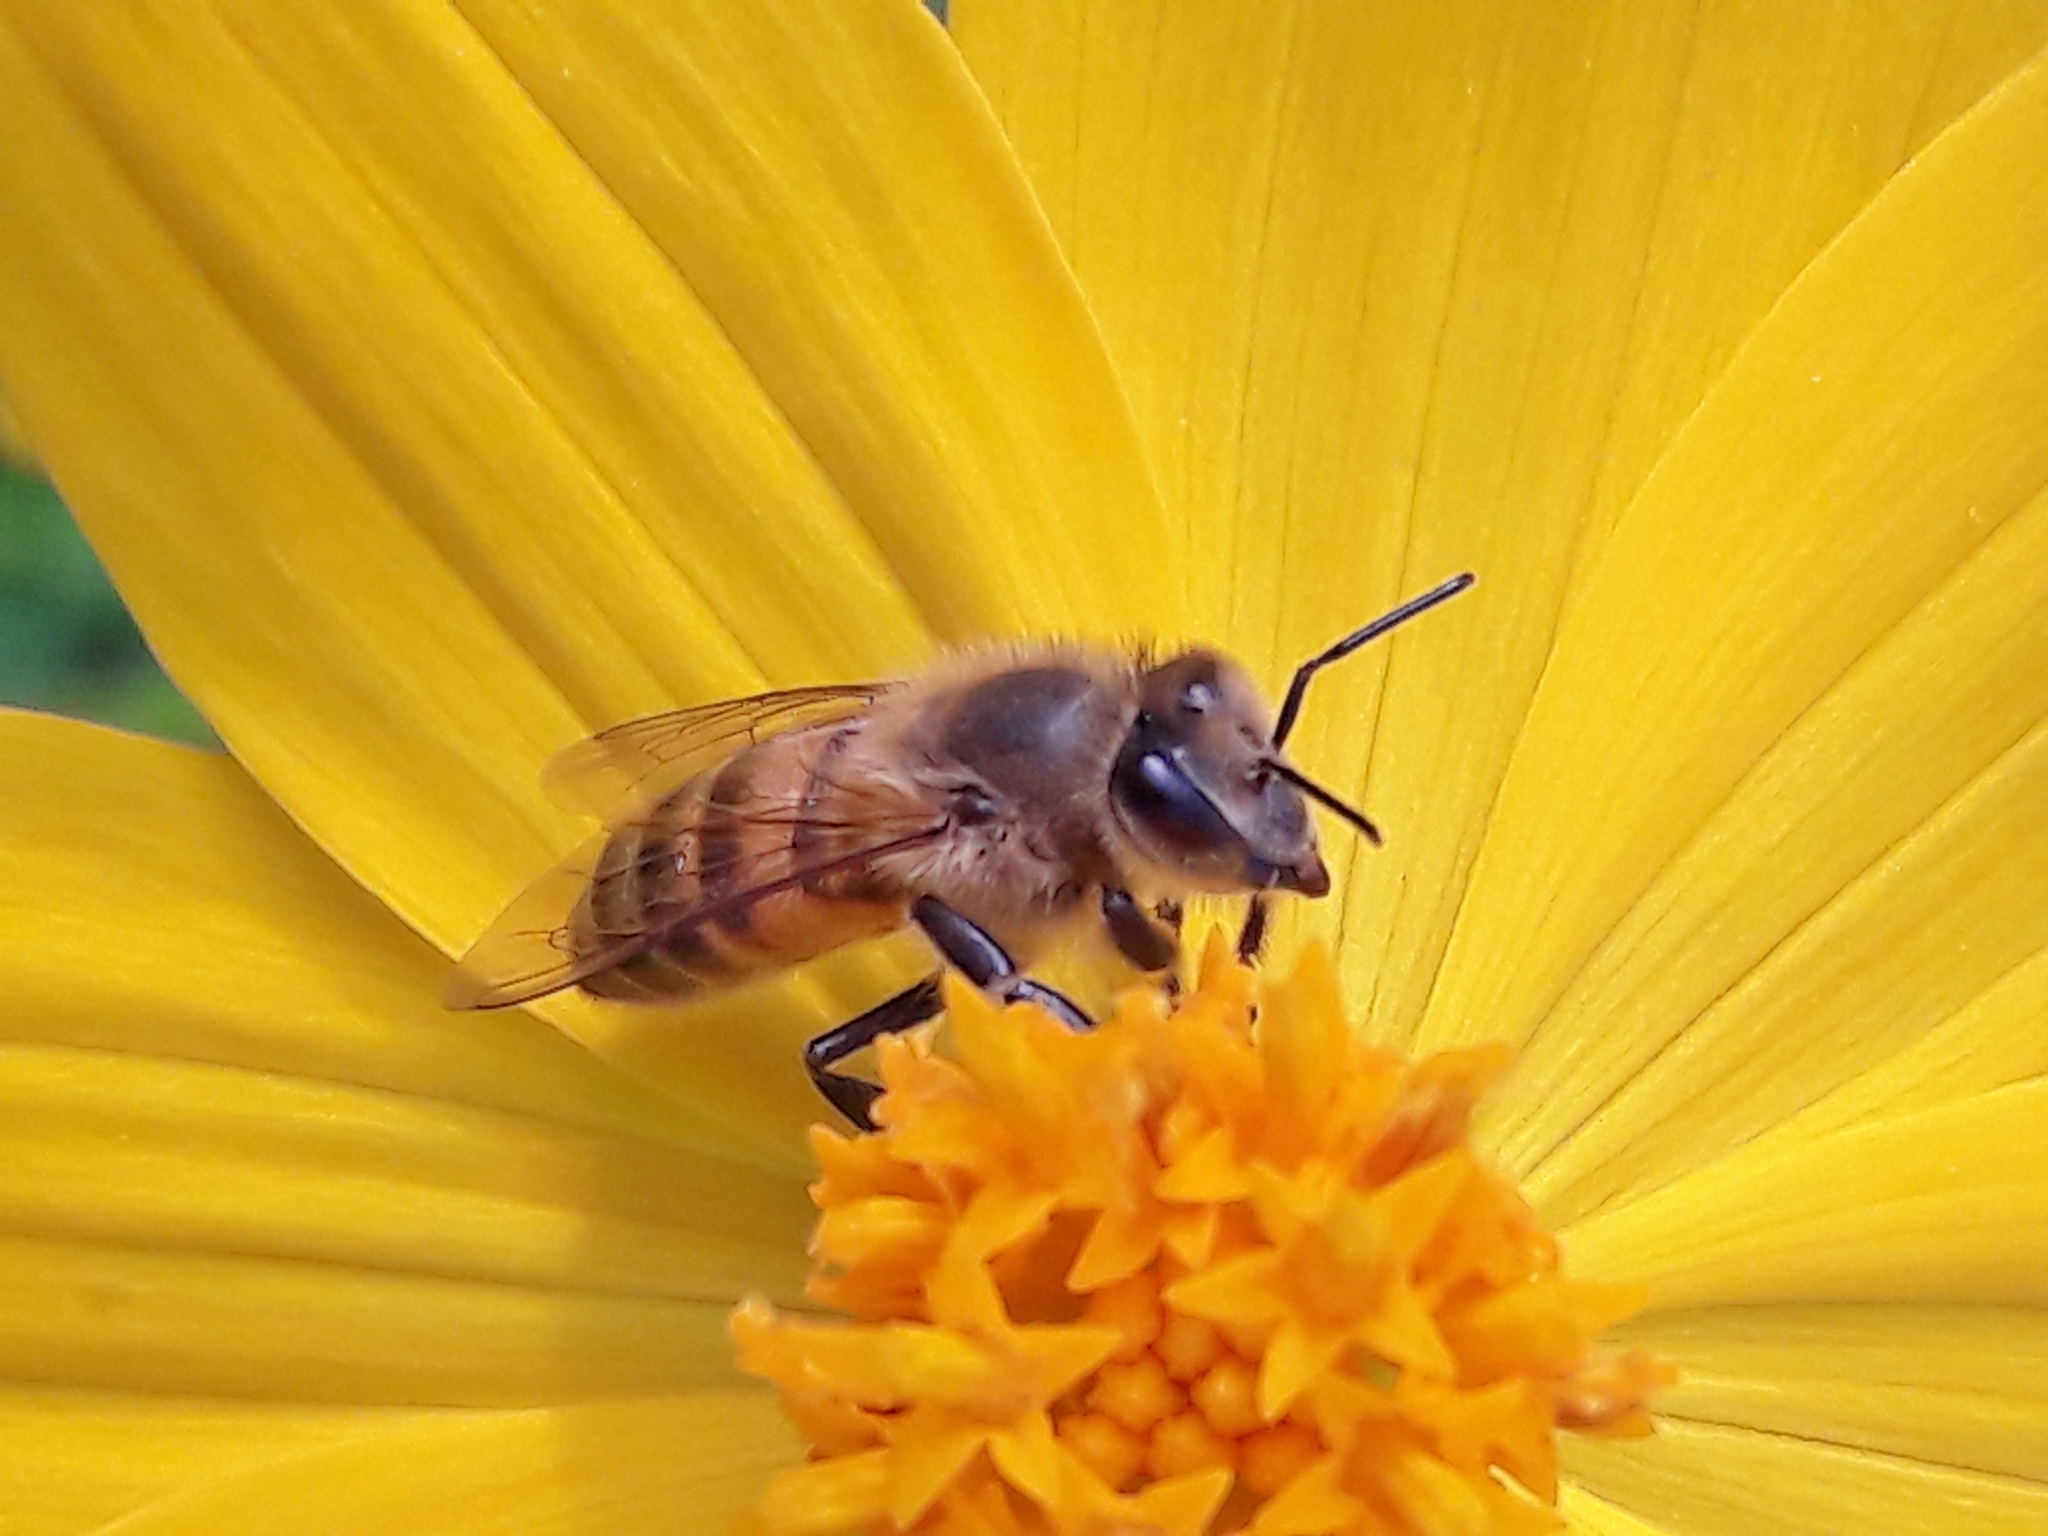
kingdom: Animalia
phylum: Arthropoda
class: Insecta
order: Hymenoptera
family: Apidae
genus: Apis
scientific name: Apis mellifera
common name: Honey bee
